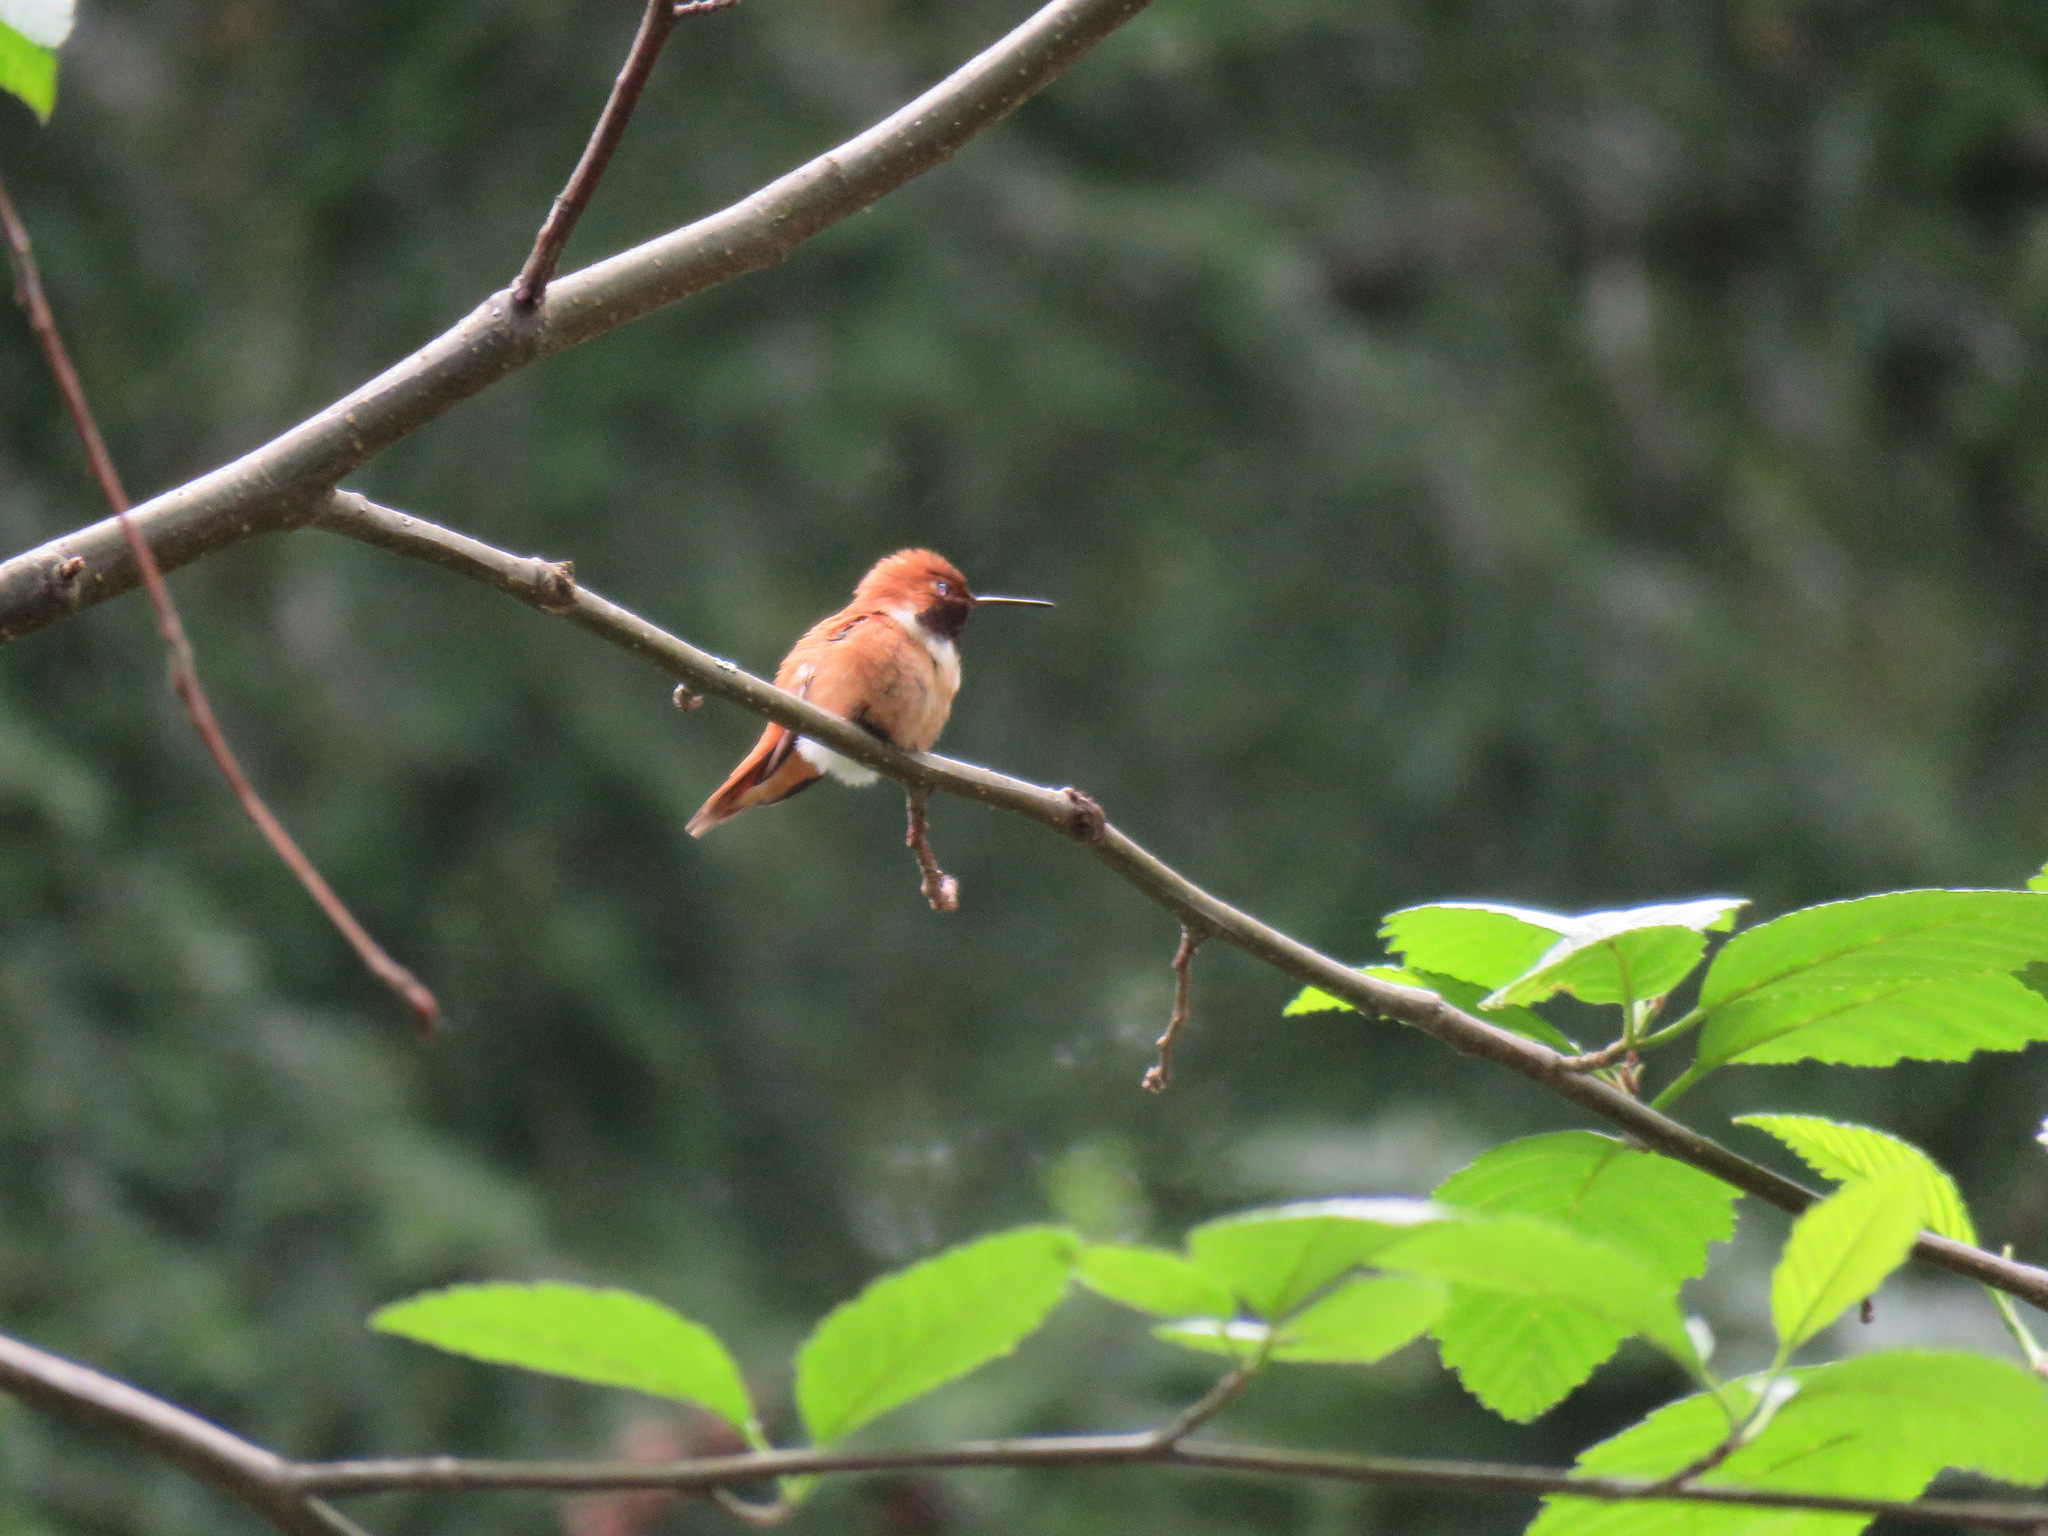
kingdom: Animalia
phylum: Chordata
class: Aves
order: Apodiformes
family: Trochilidae
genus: Selasphorus
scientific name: Selasphorus rufus
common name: Rufous hummingbird
